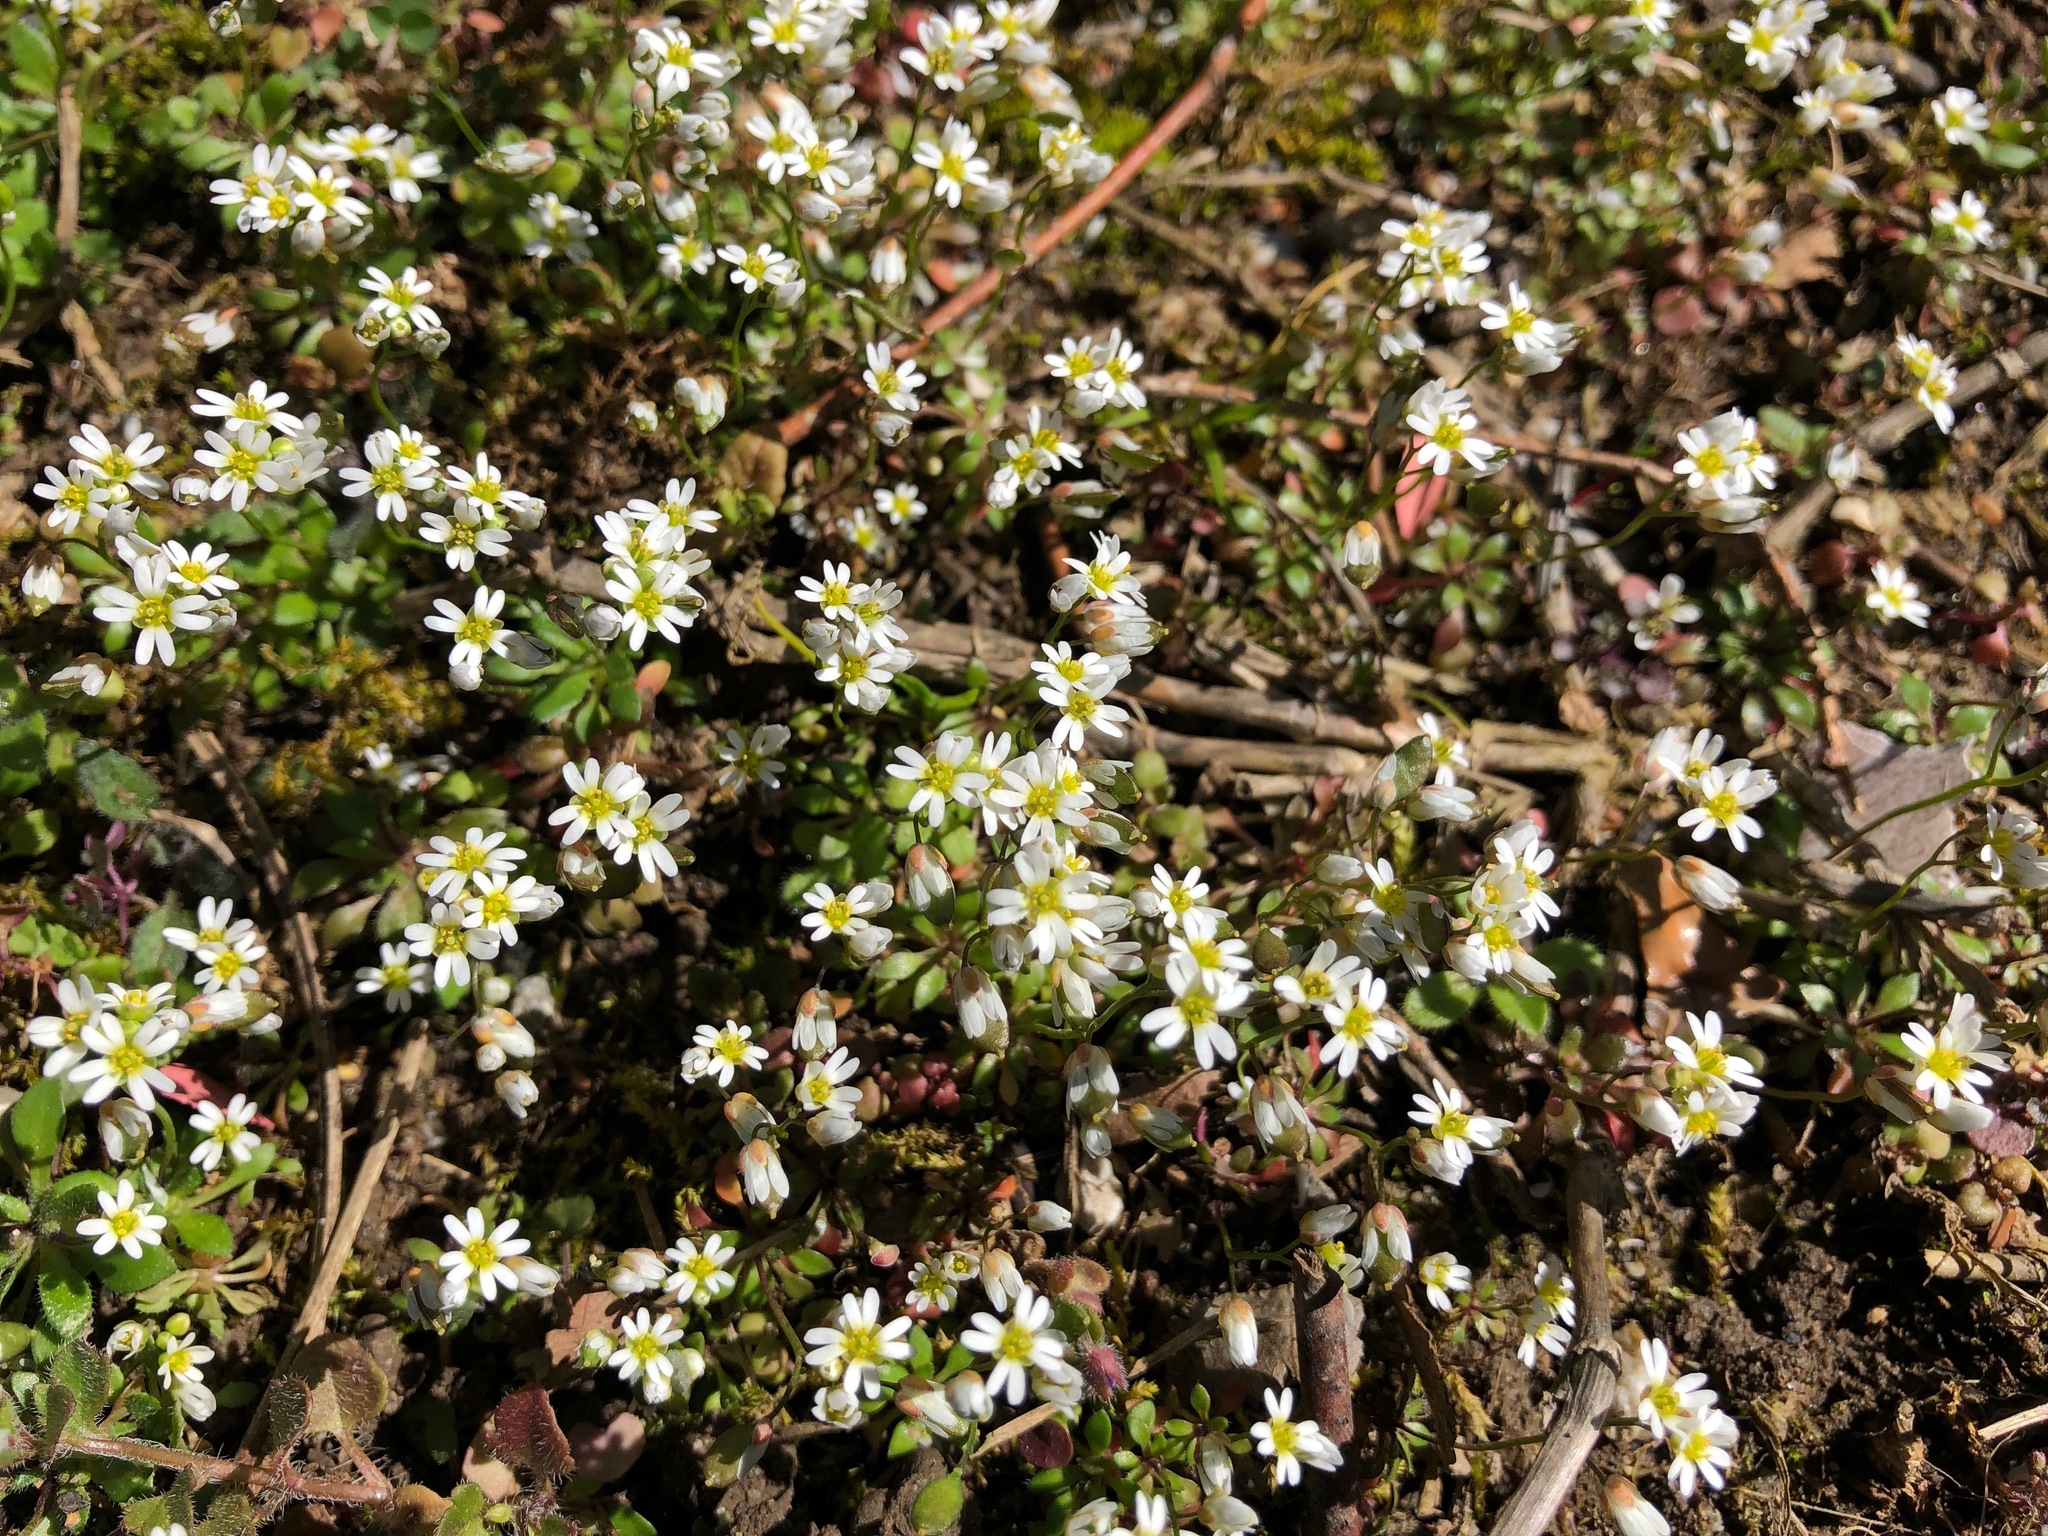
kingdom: Plantae
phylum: Tracheophyta
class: Magnoliopsida
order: Brassicales
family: Brassicaceae
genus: Draba
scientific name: Draba verna
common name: Spring draba
